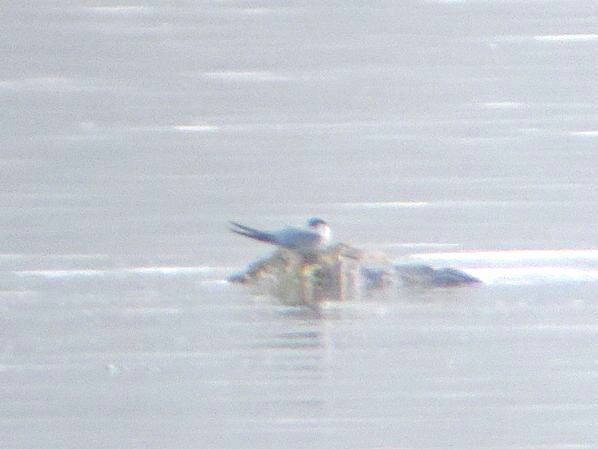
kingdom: Animalia
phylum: Chordata
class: Aves
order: Charadriiformes
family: Laridae
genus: Sterna
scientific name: Sterna hirundo
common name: Common tern
